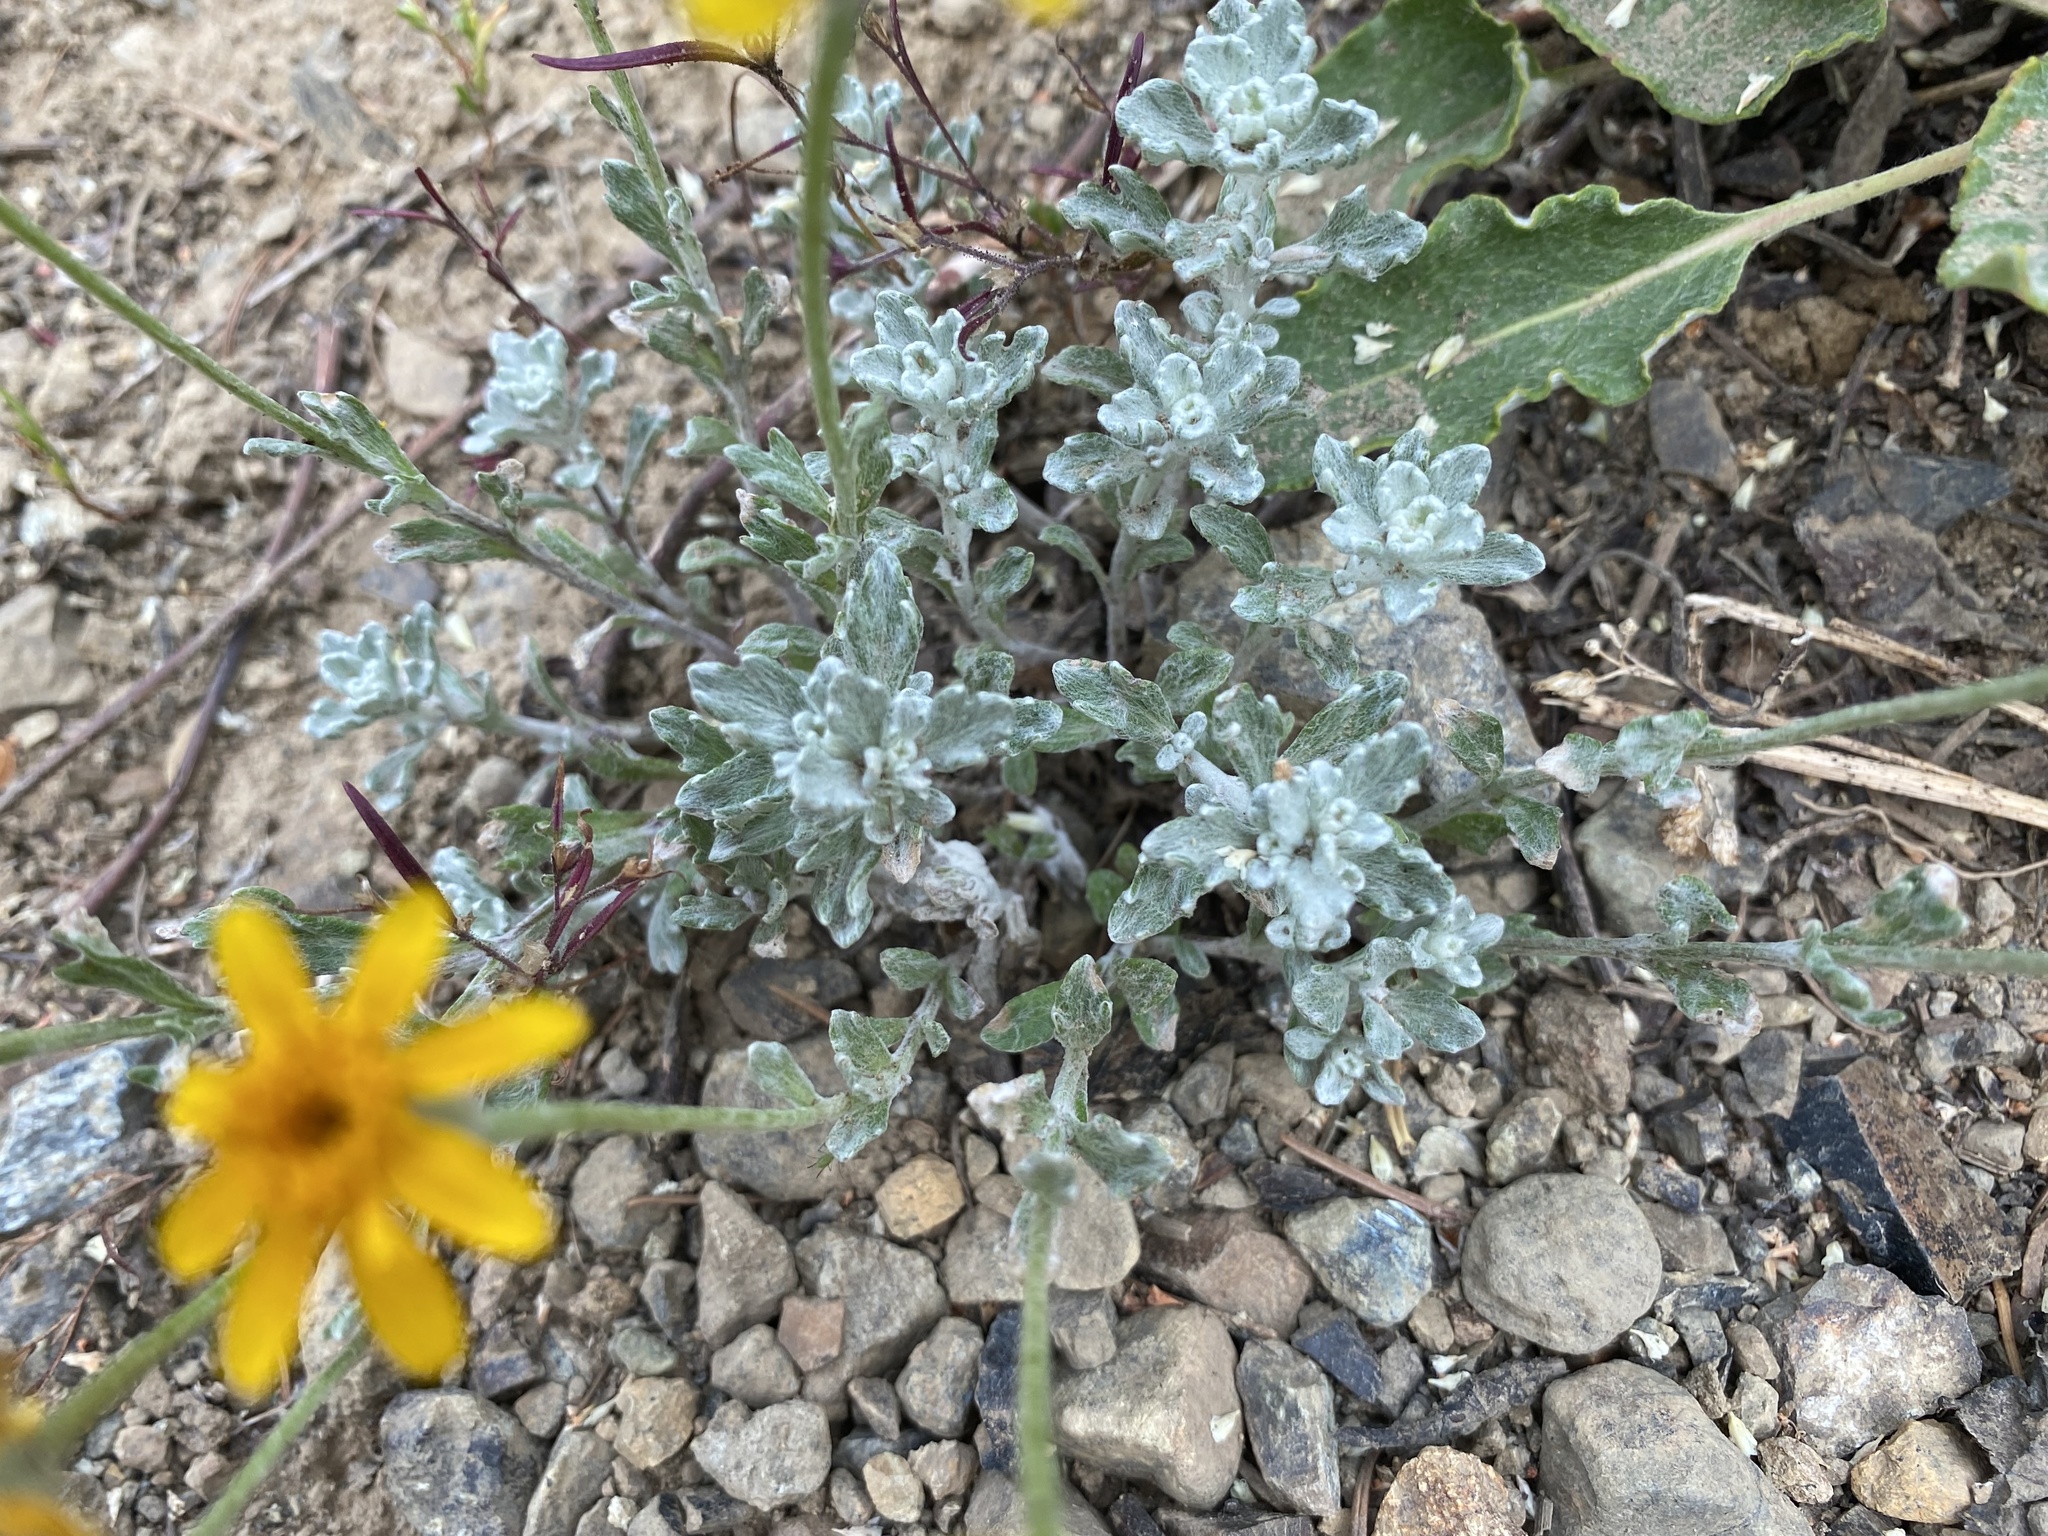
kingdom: Plantae
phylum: Tracheophyta
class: Magnoliopsida
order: Asterales
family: Asteraceae
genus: Eriophyllum
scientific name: Eriophyllum lanatum
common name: Common woolly-sunflower
